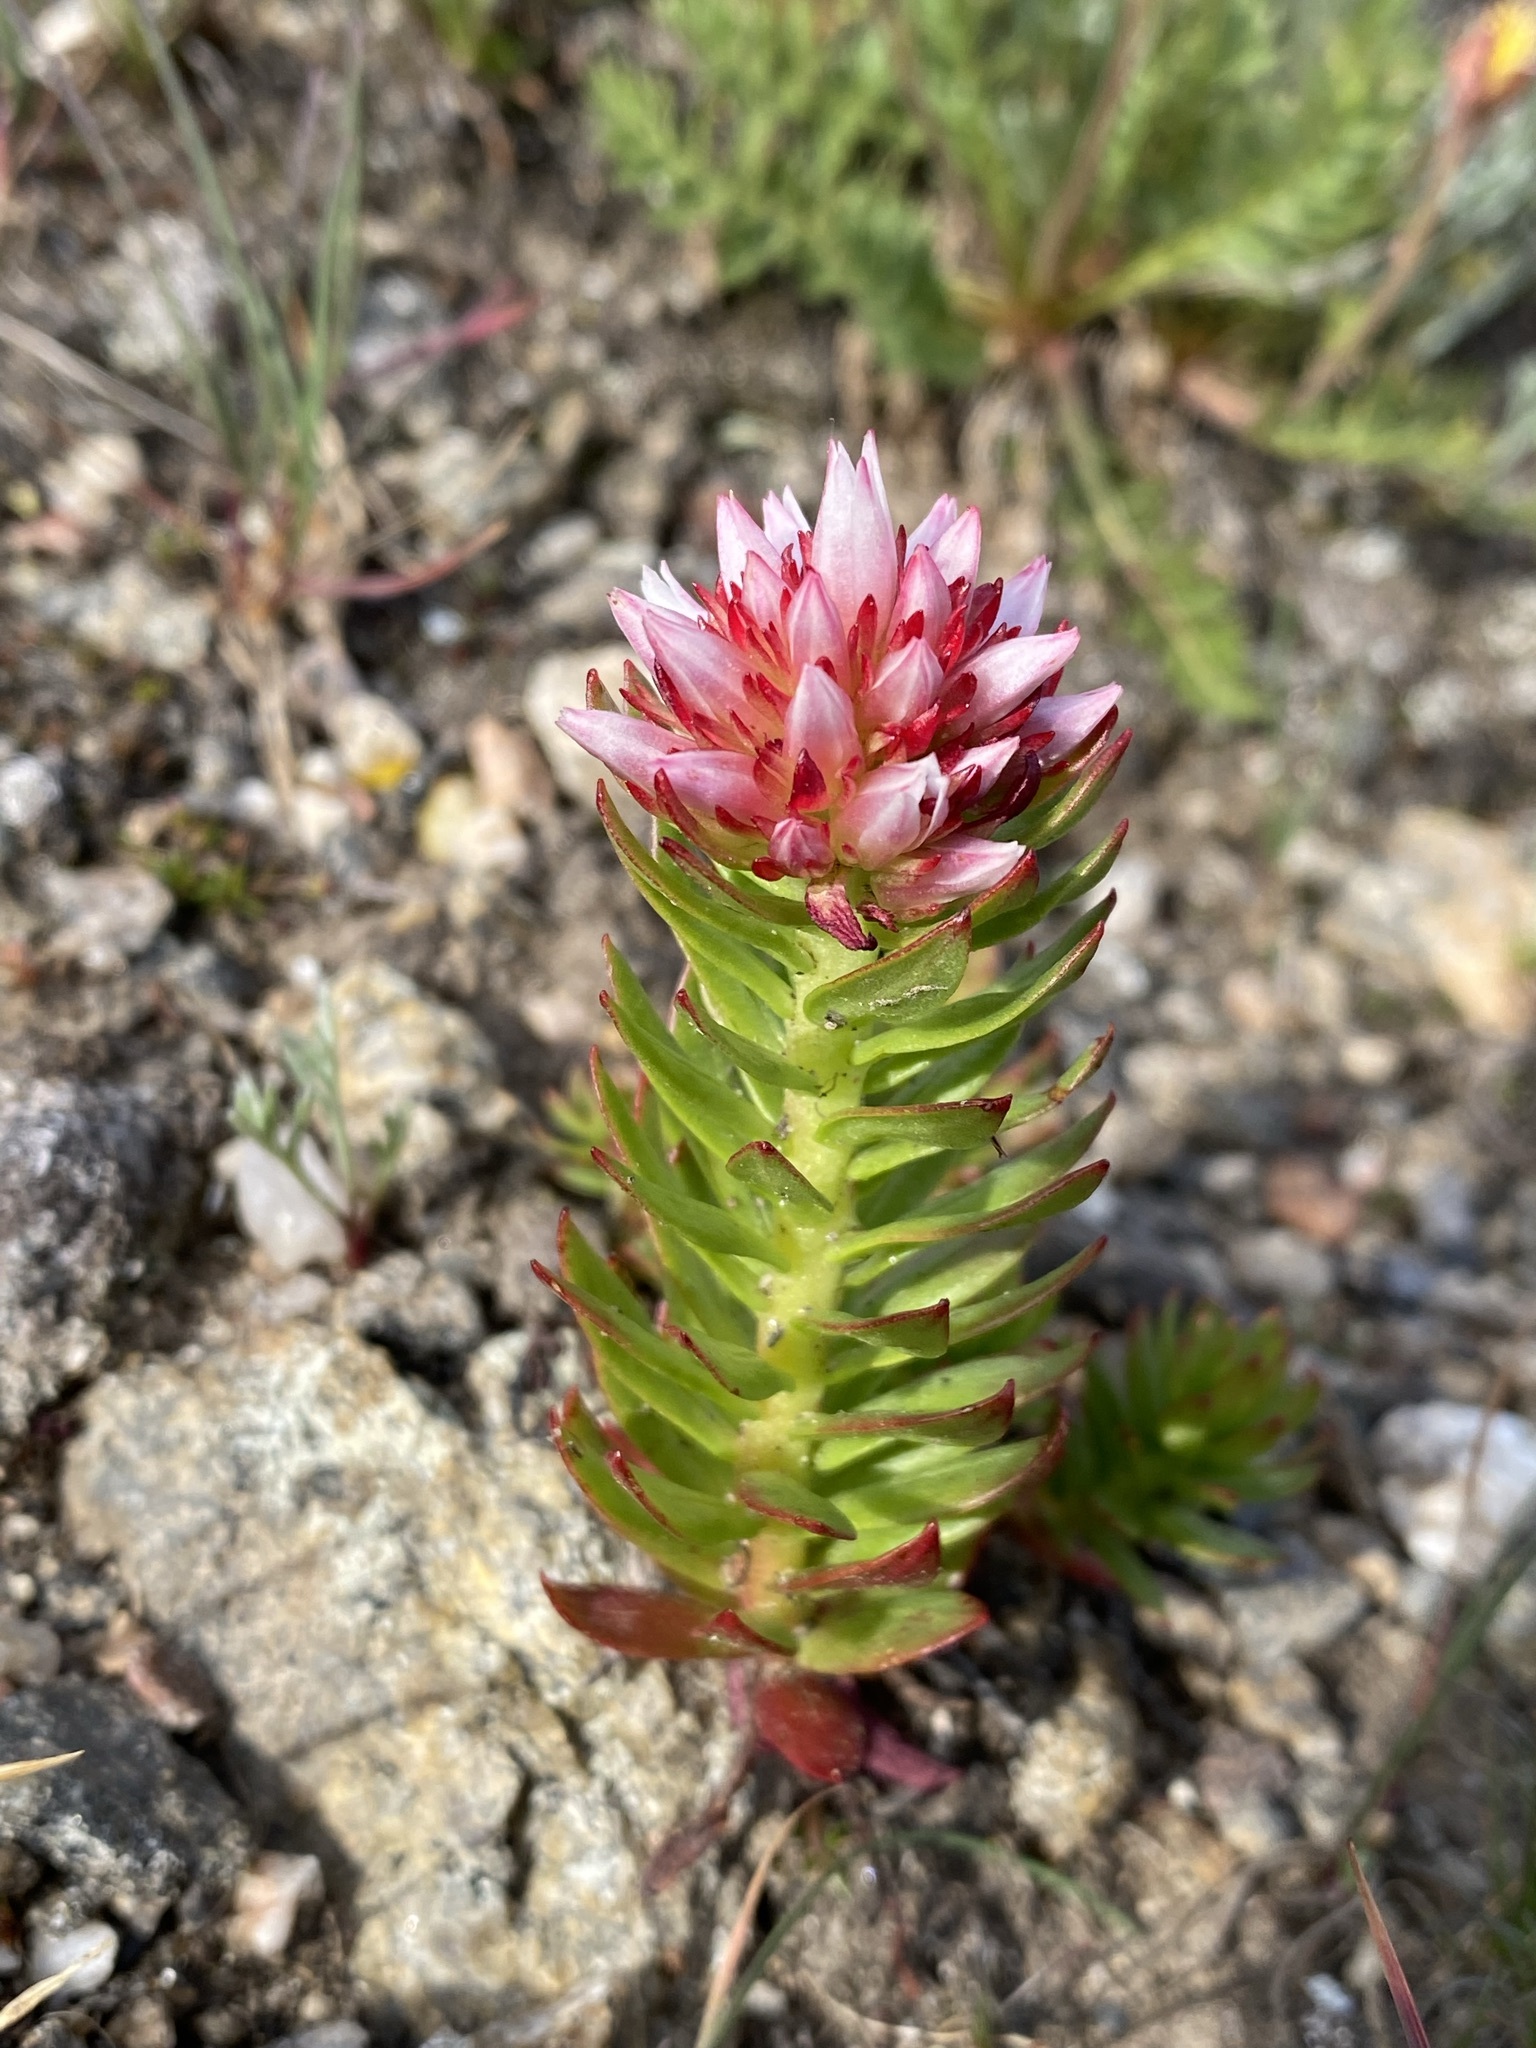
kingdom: Plantae
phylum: Tracheophyta
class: Magnoliopsida
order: Saxifragales
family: Crassulaceae
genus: Rhodiola
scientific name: Rhodiola rhodantha
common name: Red orpine
